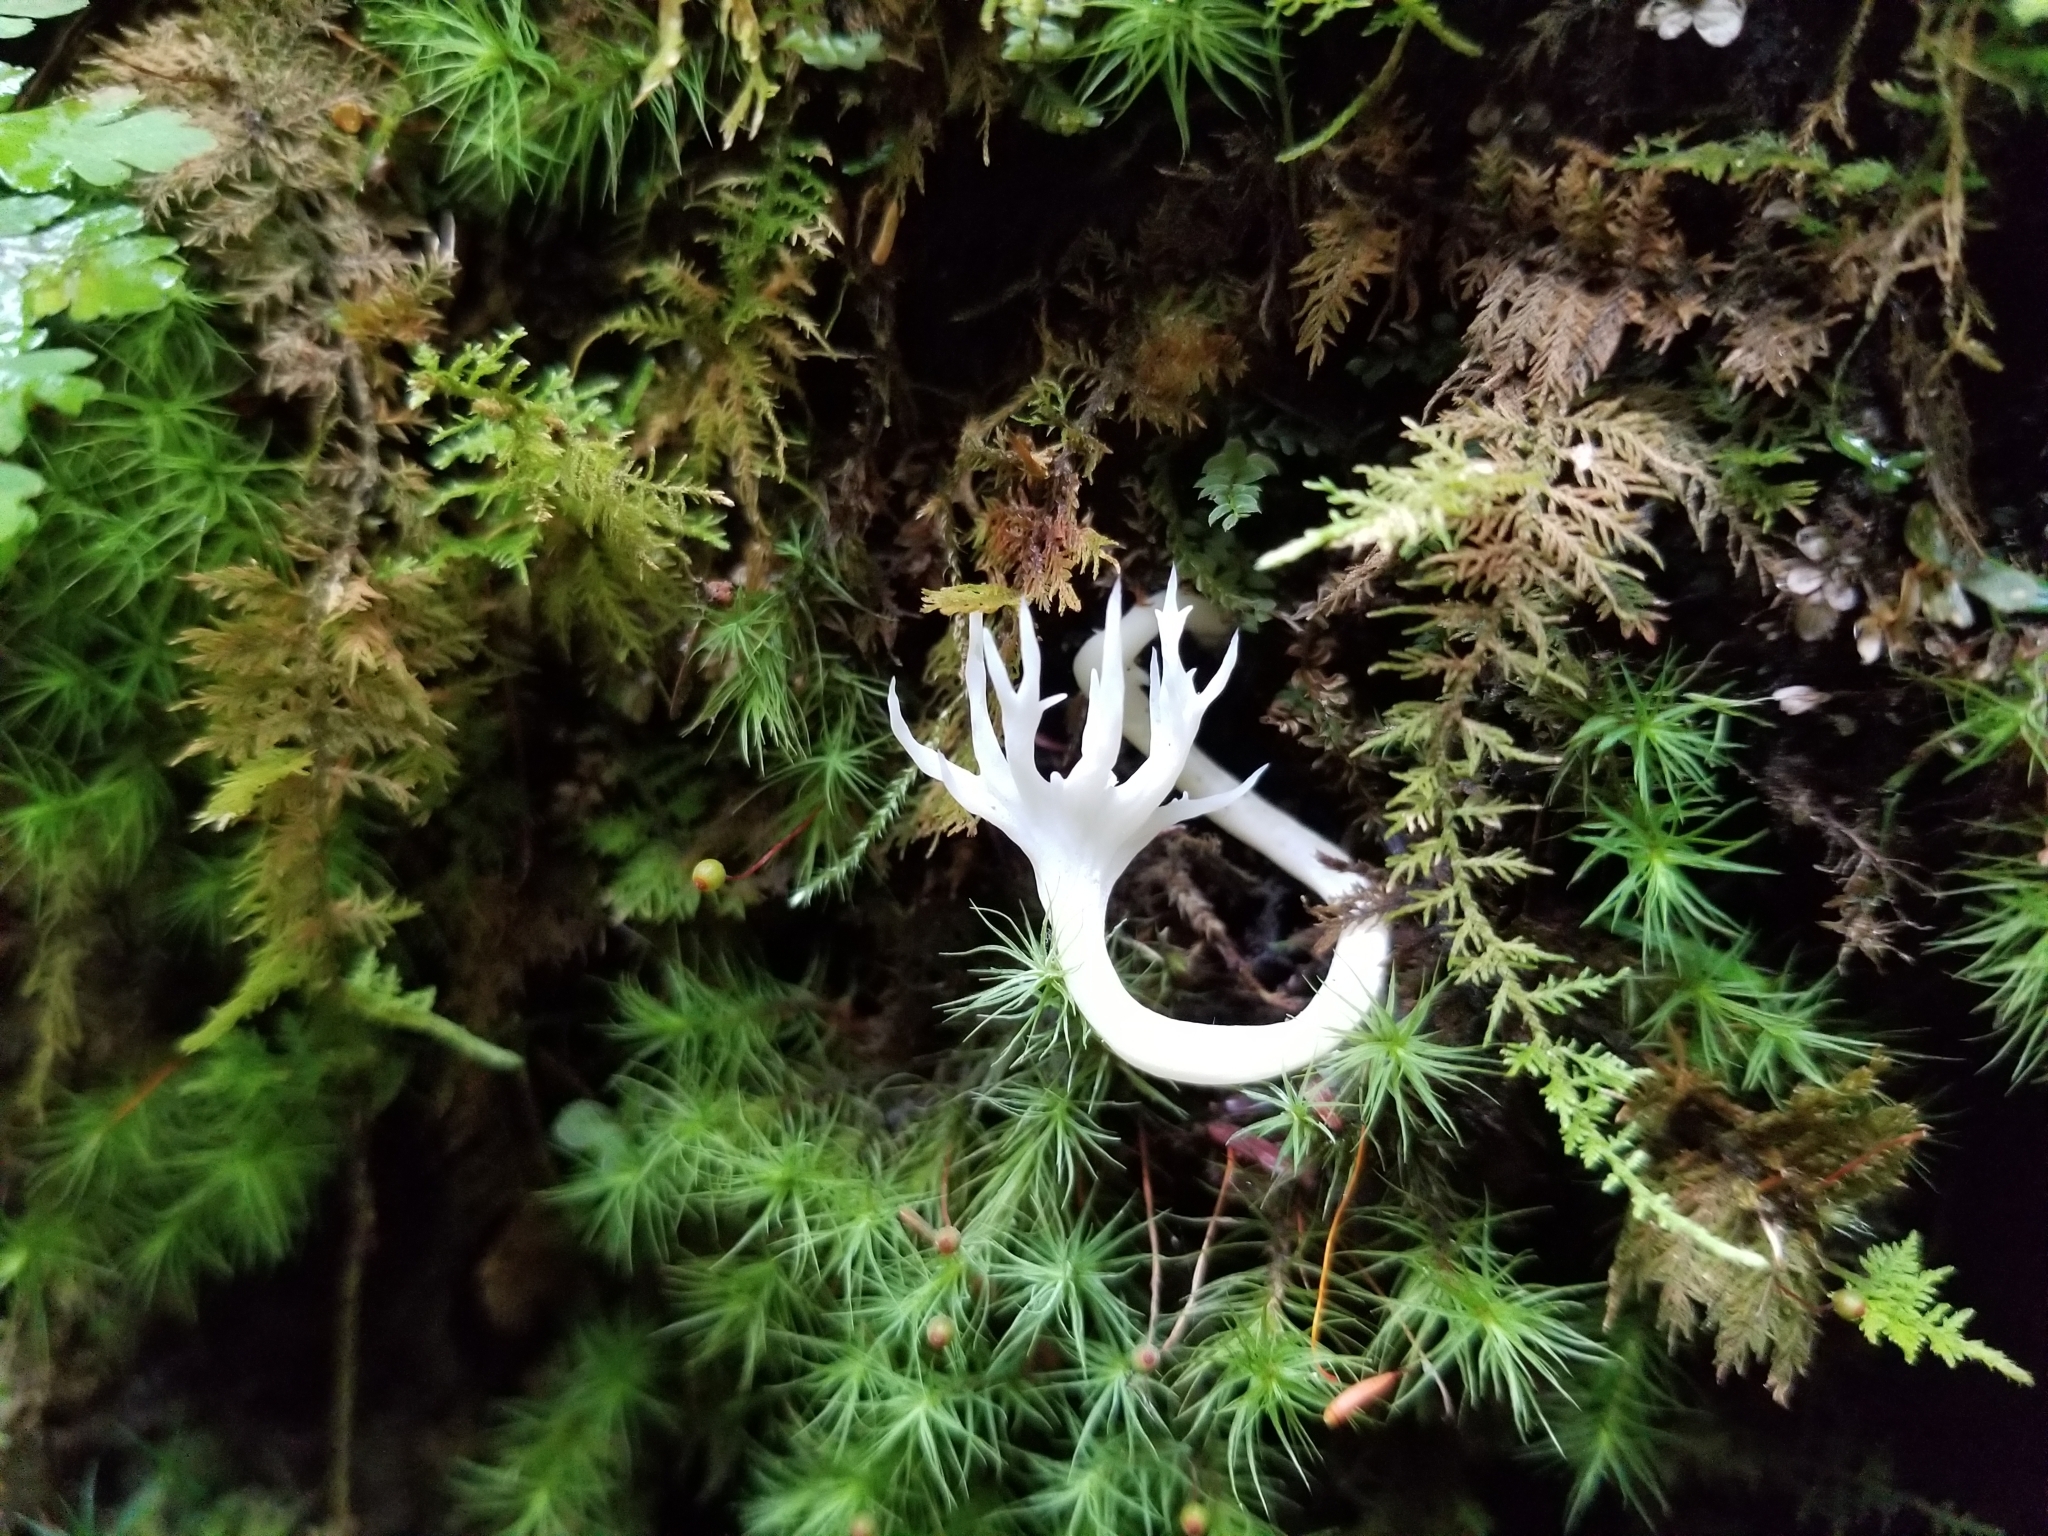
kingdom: Fungi
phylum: Basidiomycota
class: Agaricomycetes
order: Cantharellales
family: Hydnaceae
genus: Clavulina
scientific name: Clavulina coralloides
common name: Crested coral
